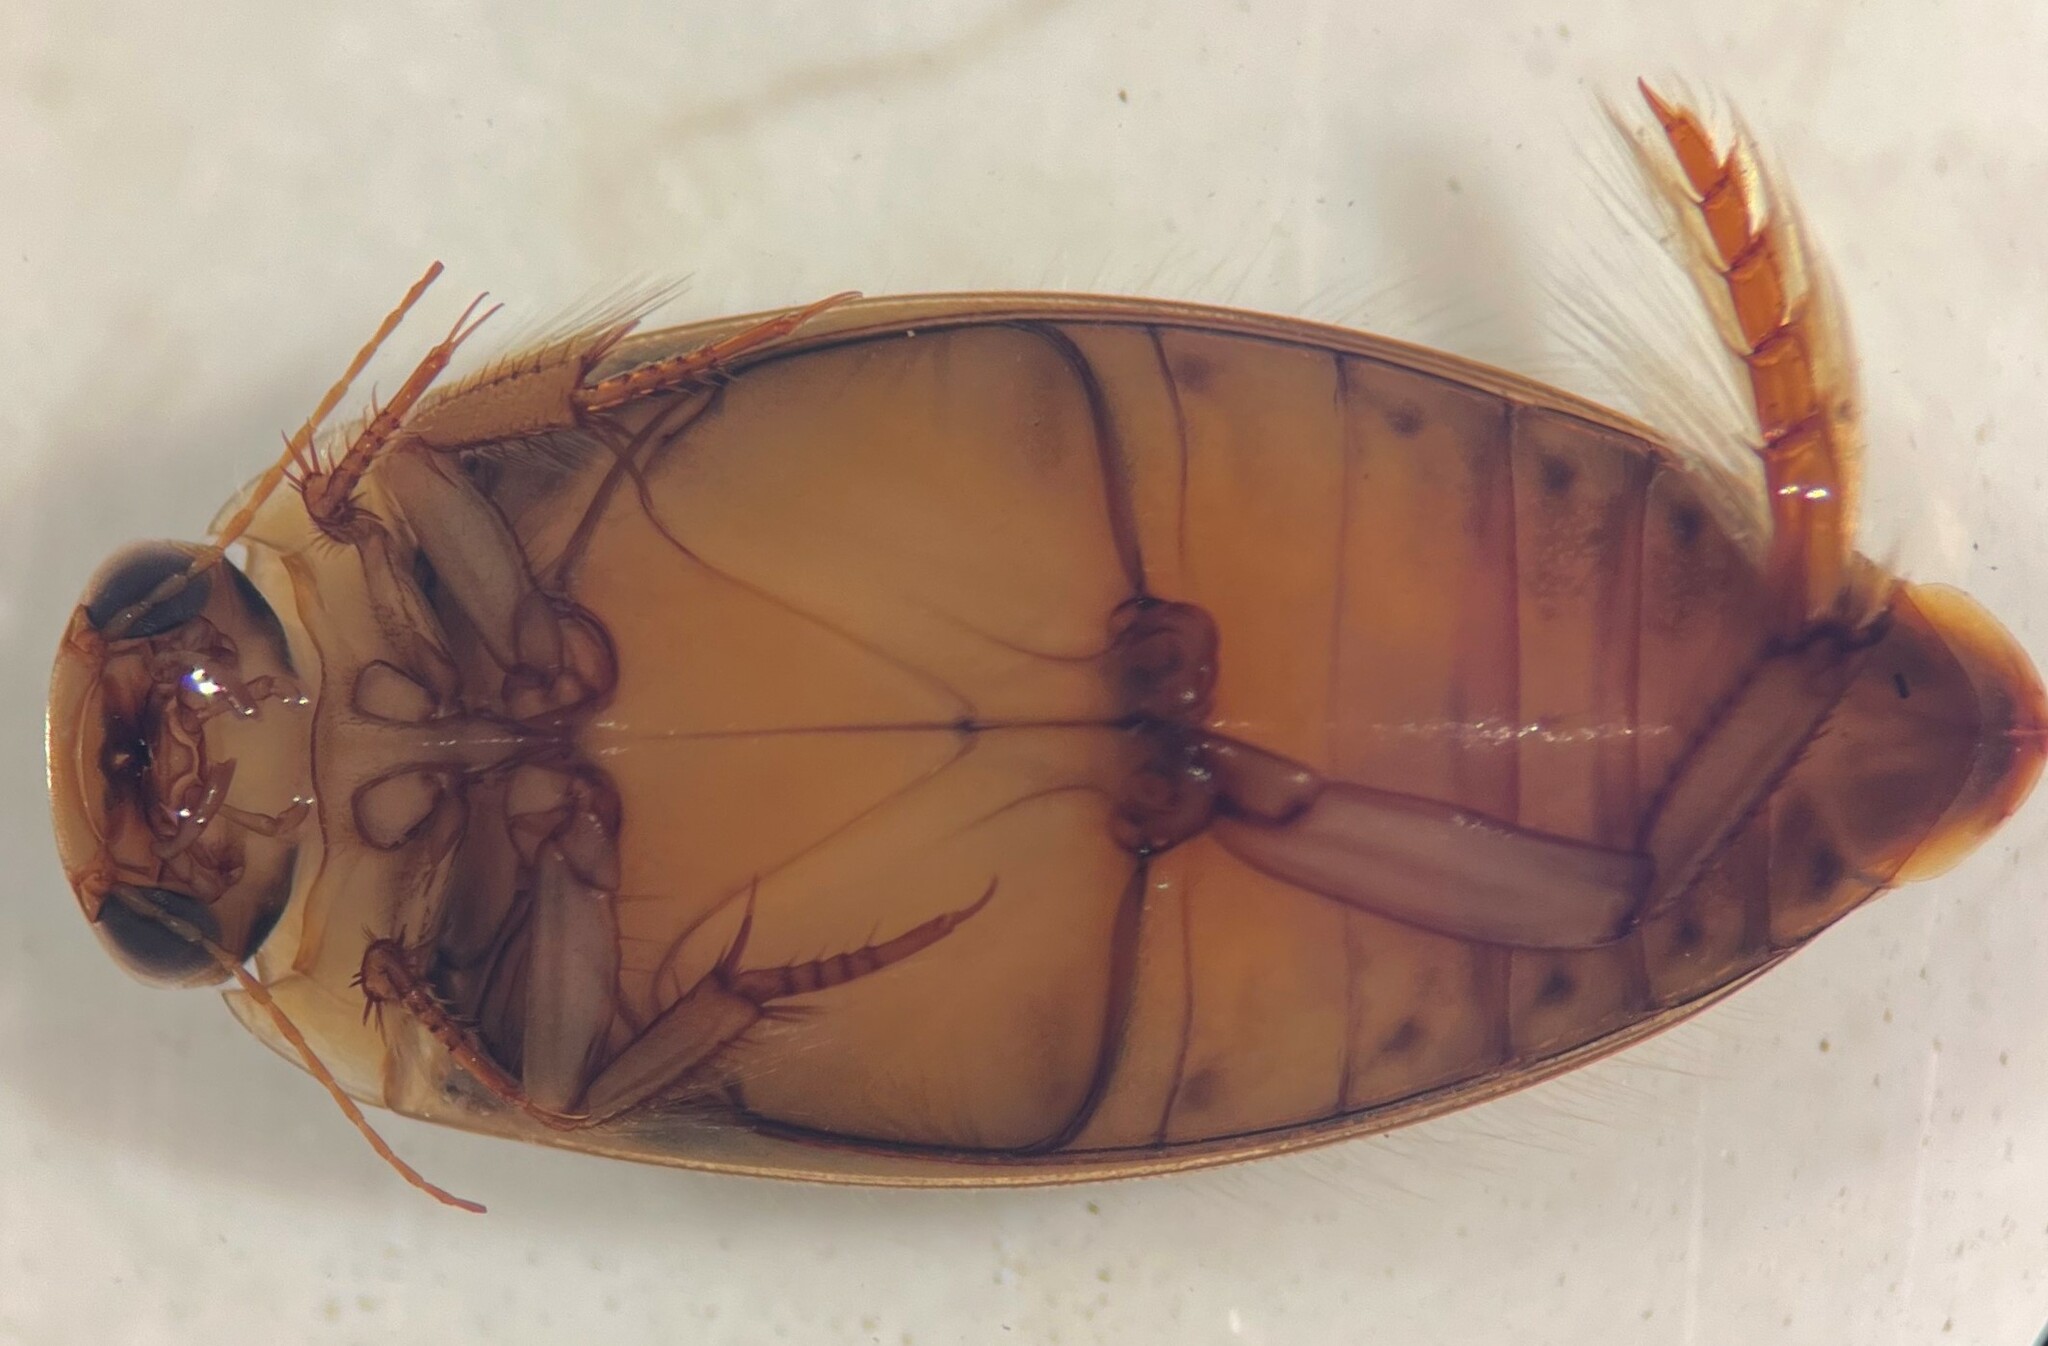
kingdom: Animalia
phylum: Arthropoda
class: Insecta
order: Coleoptera
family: Dytiscidae
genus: Coptotomus
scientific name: Coptotomus longulus
